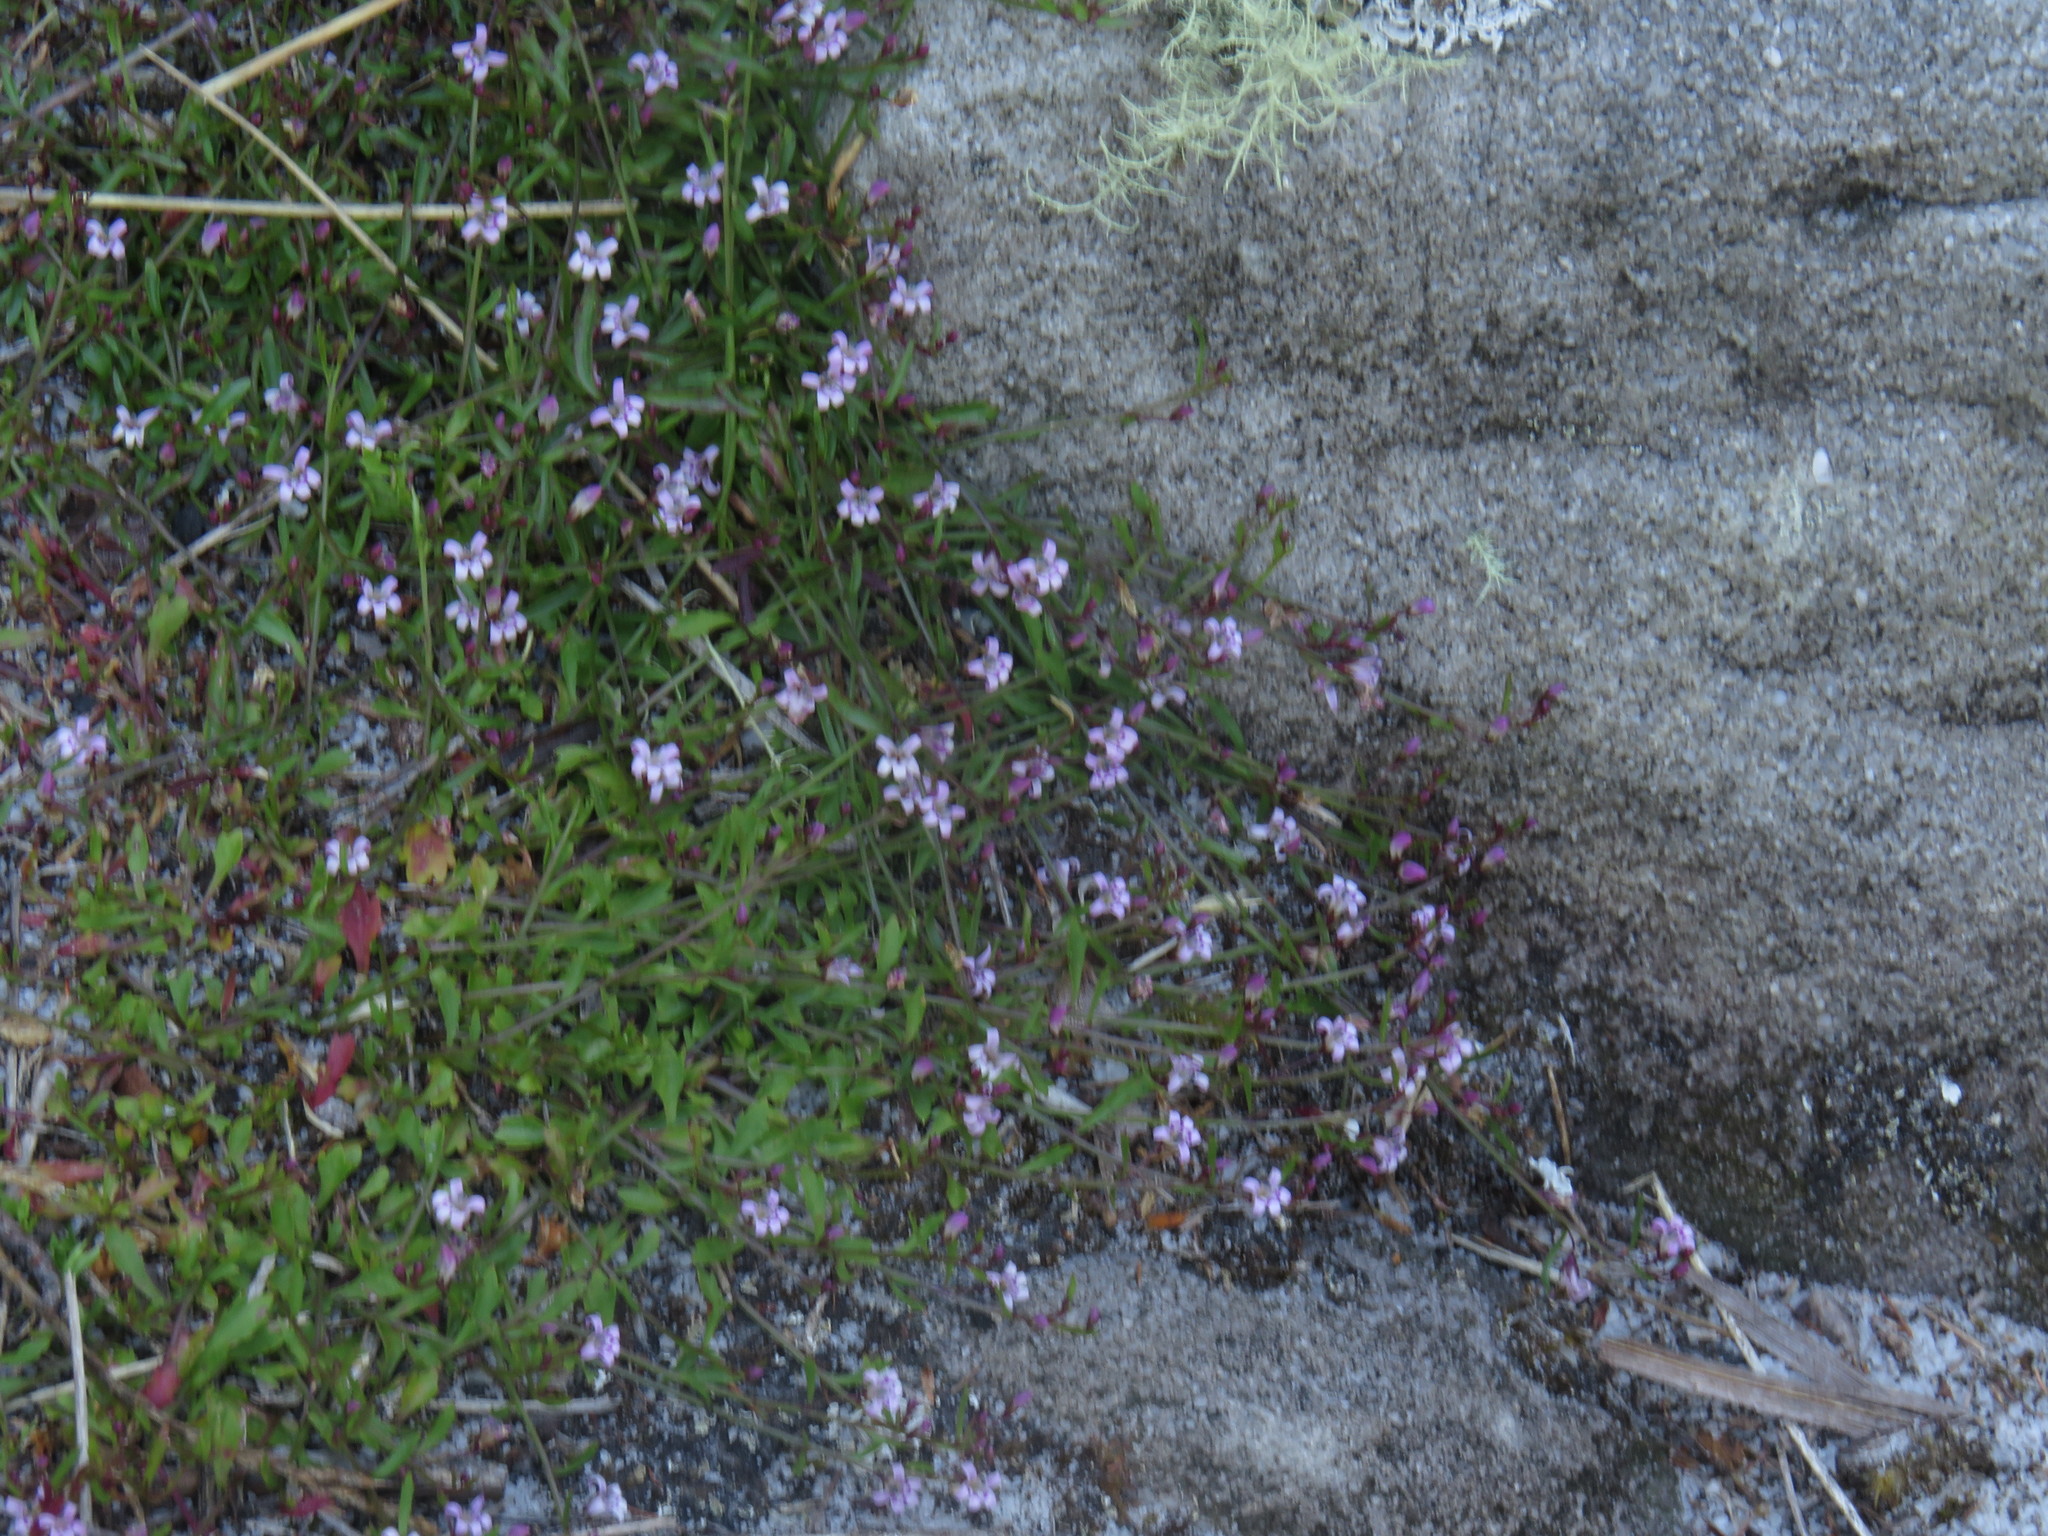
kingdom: Plantae
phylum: Tracheophyta
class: Magnoliopsida
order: Asterales
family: Campanulaceae
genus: Lobelia
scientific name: Lobelia eckloniana
